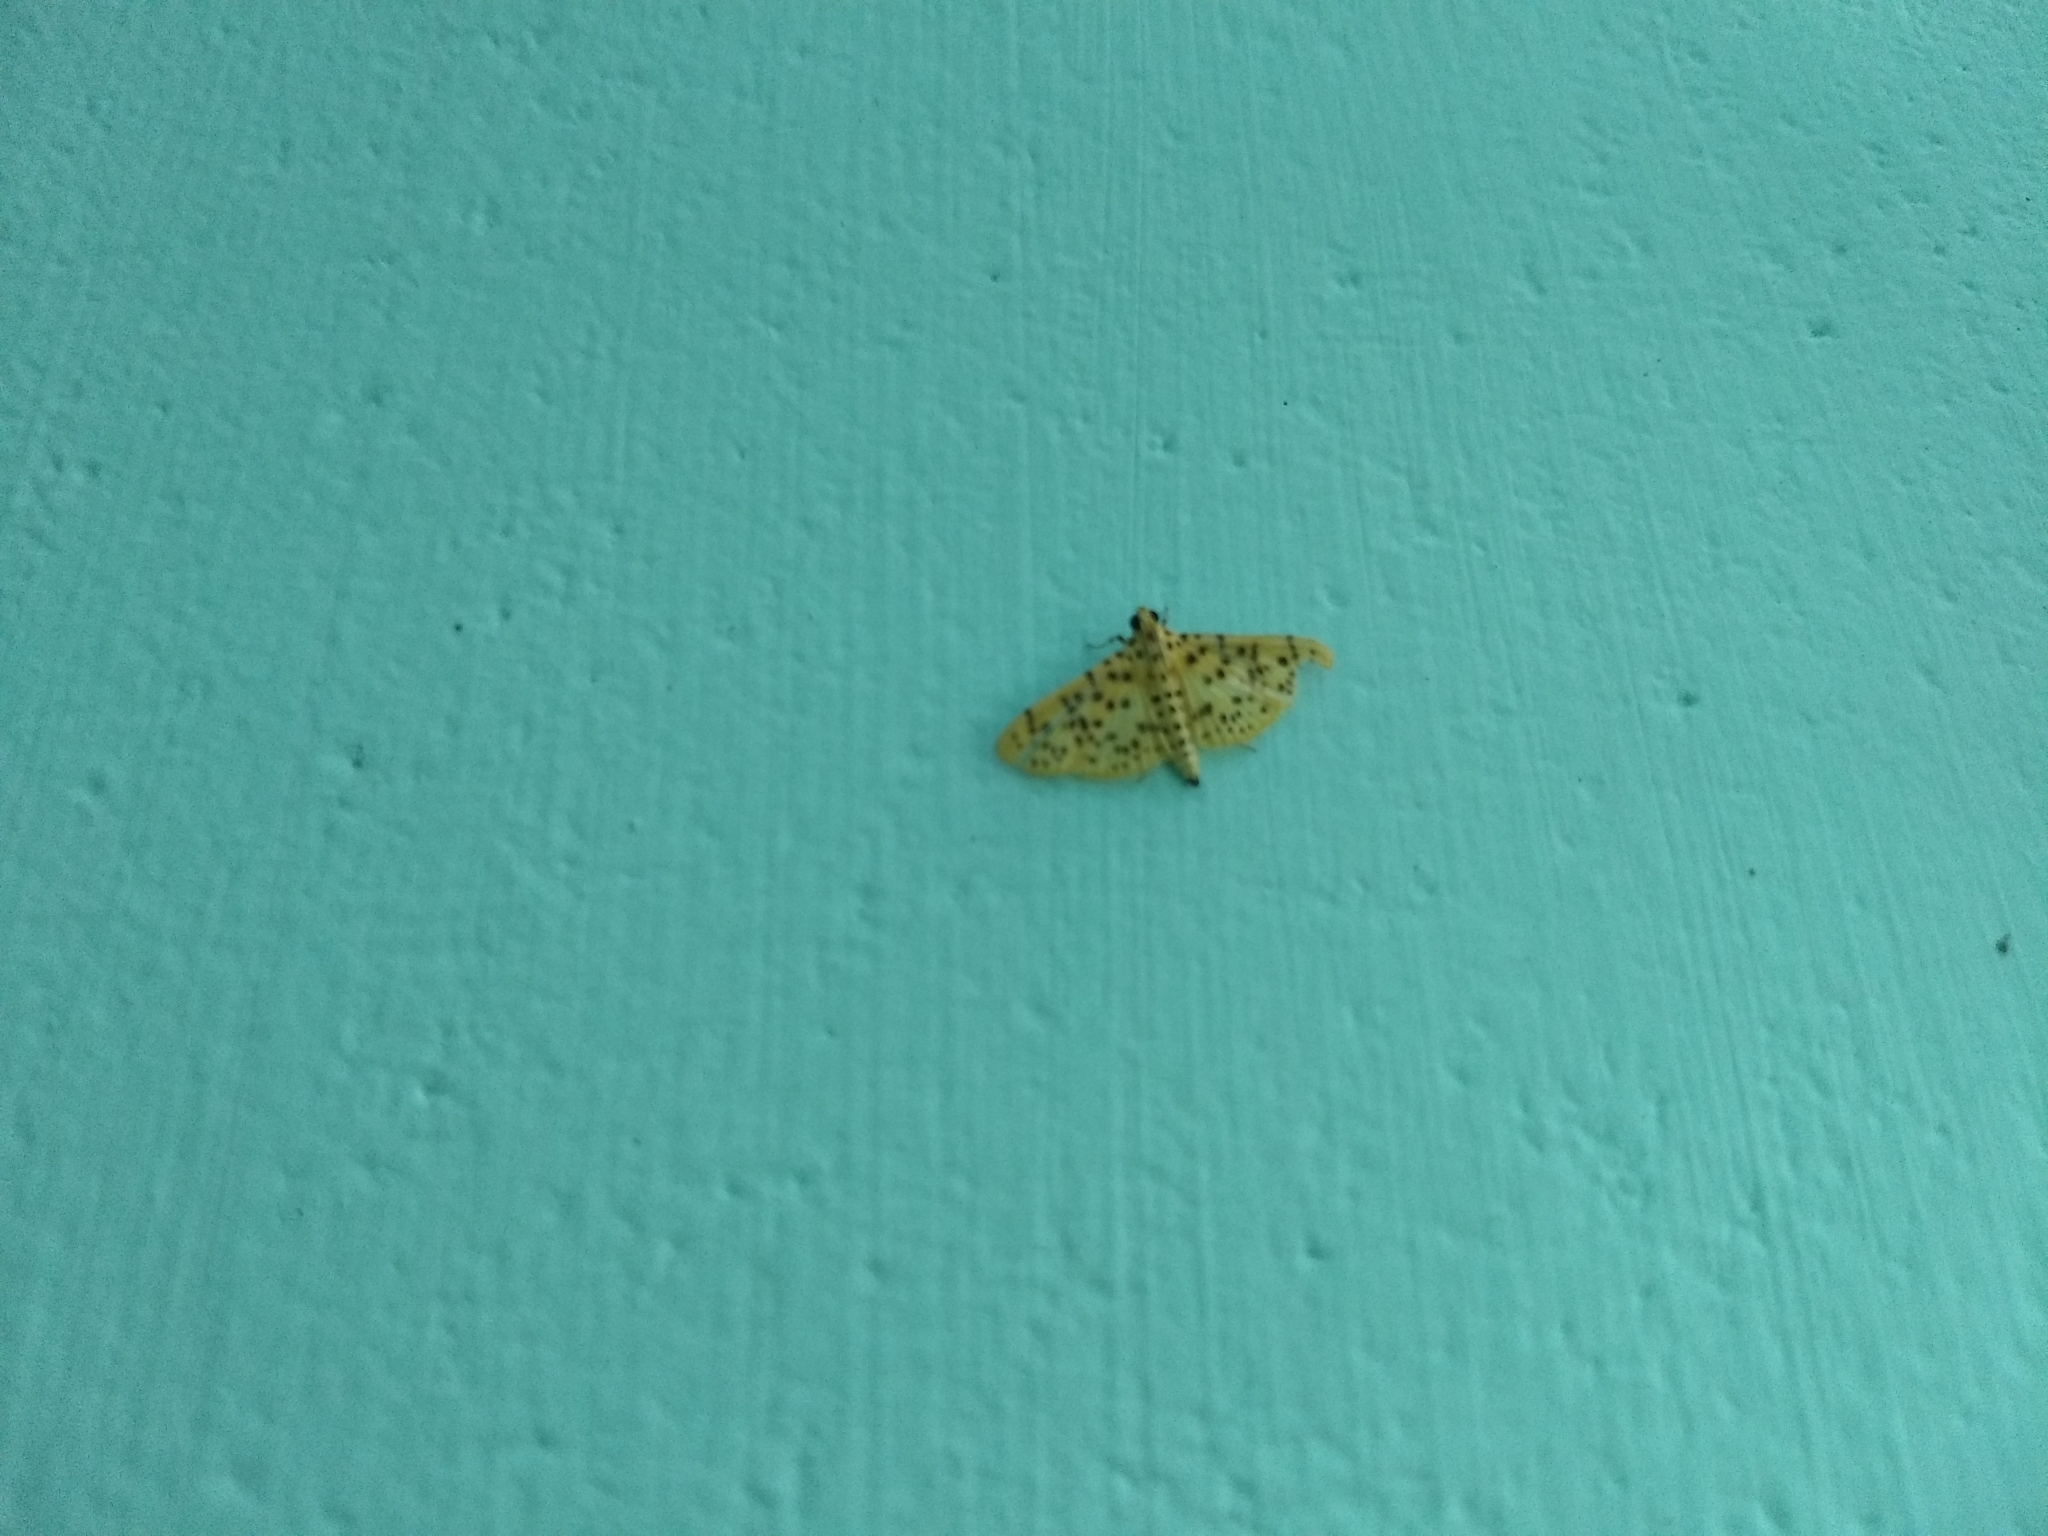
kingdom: Animalia
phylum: Arthropoda
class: Insecta
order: Lepidoptera
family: Crambidae
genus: Conogethes
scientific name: Conogethes punctiferalis
